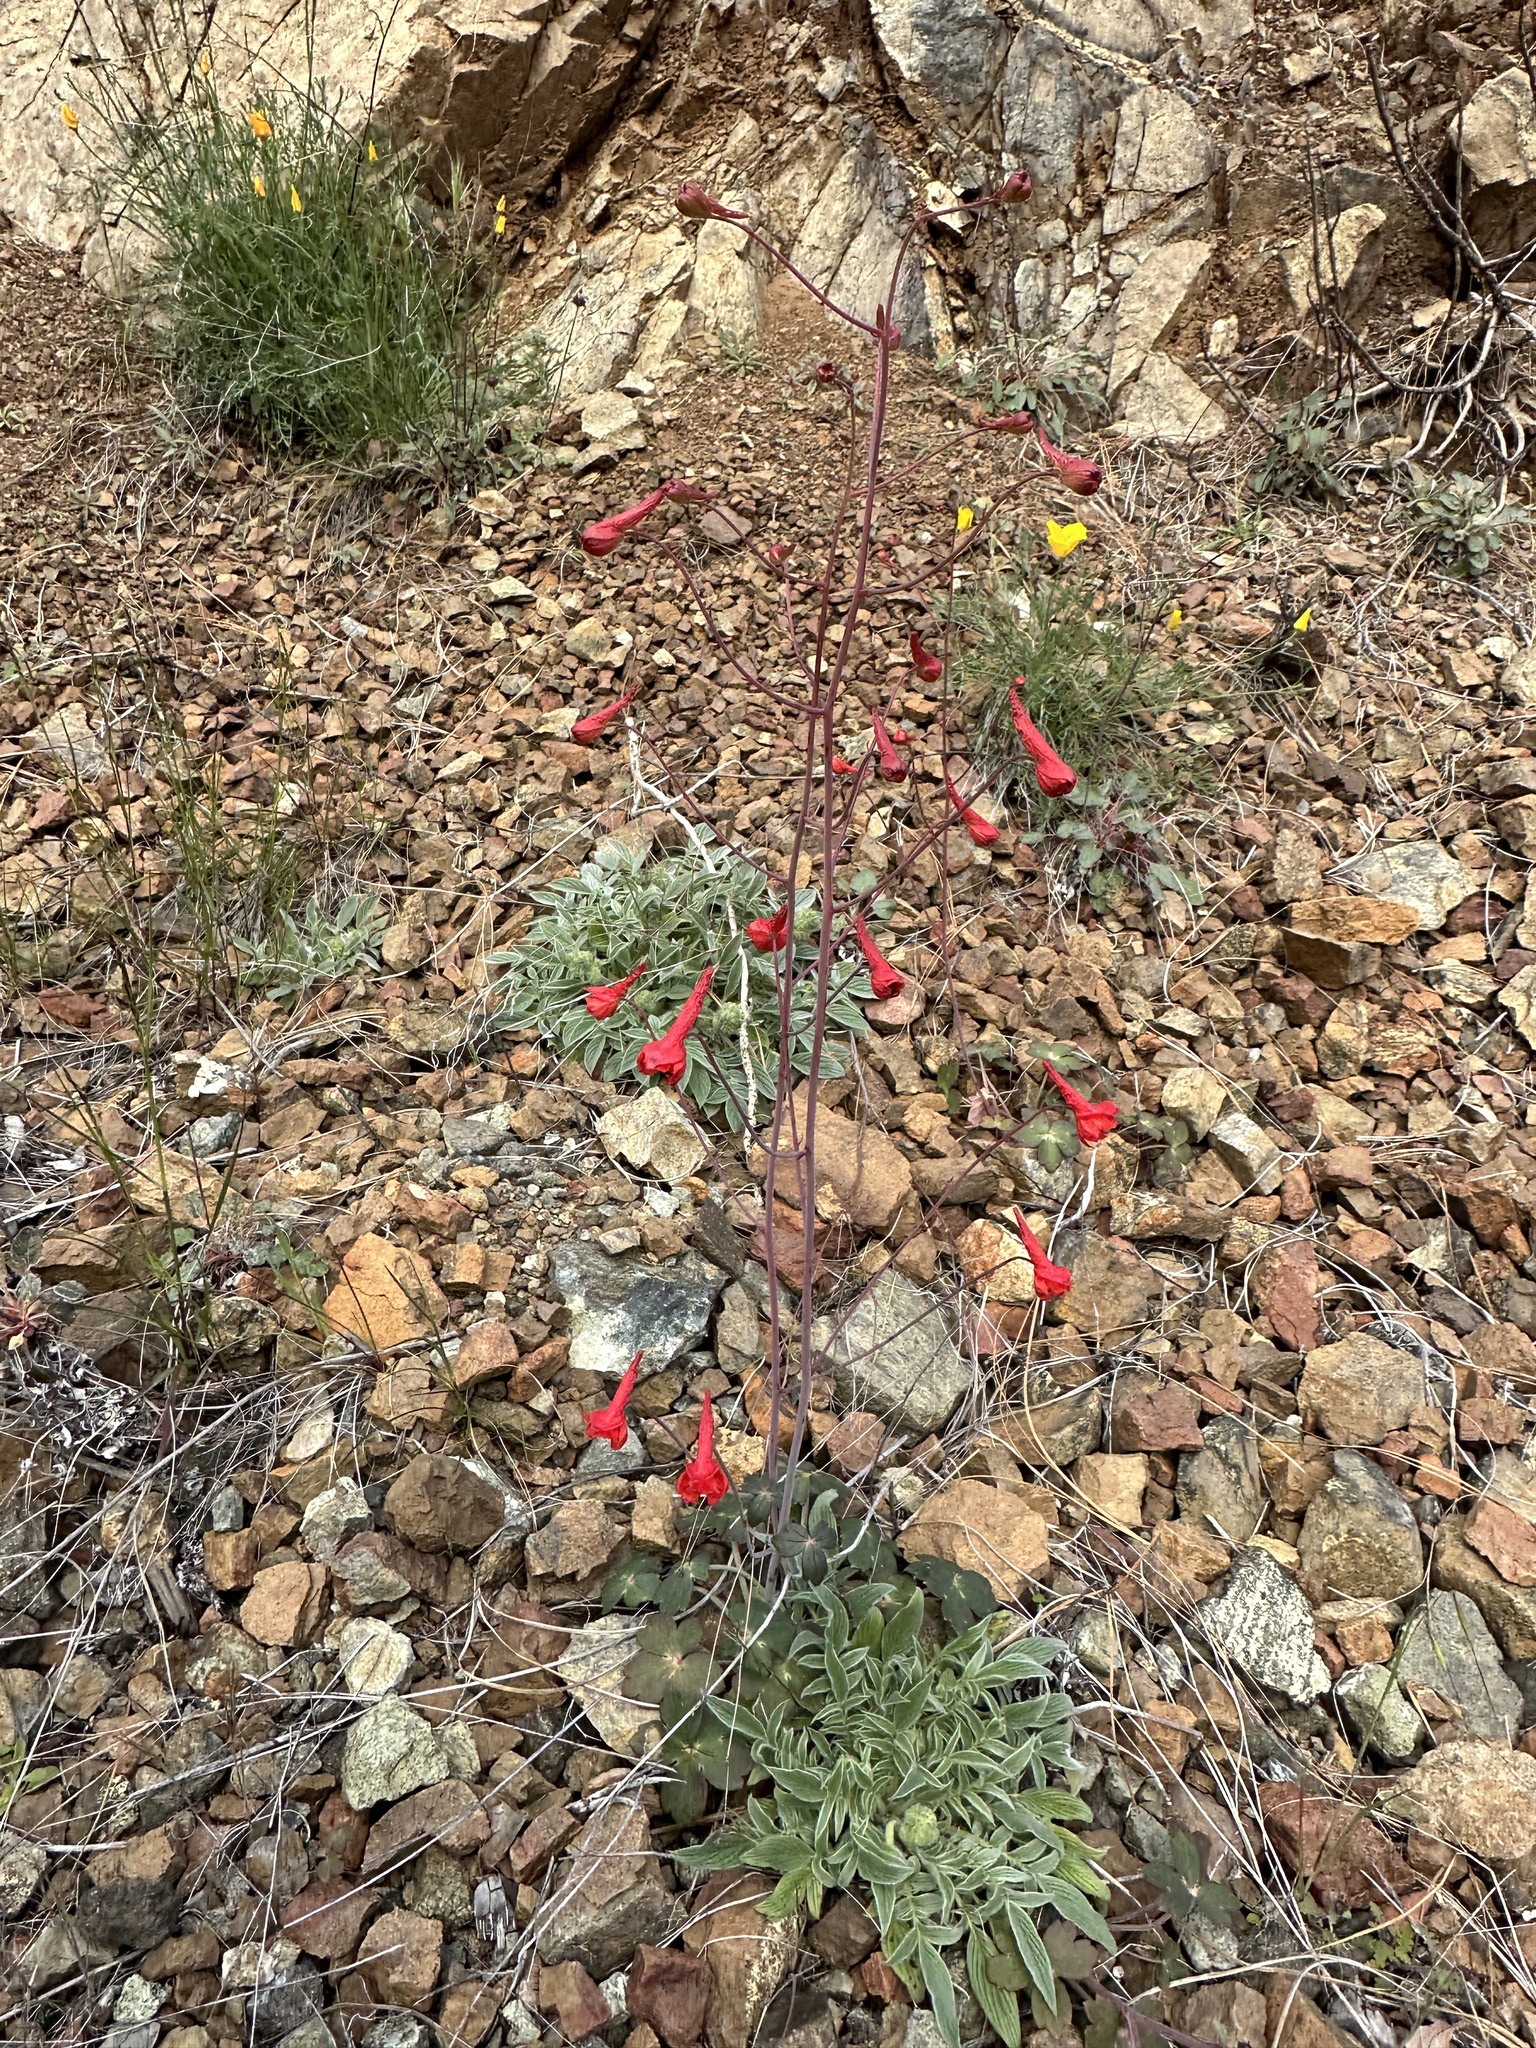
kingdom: Plantae
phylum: Tracheophyta
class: Magnoliopsida
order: Ranunculales
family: Ranunculaceae
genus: Delphinium
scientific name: Delphinium nudicaule
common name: Red larkspur
